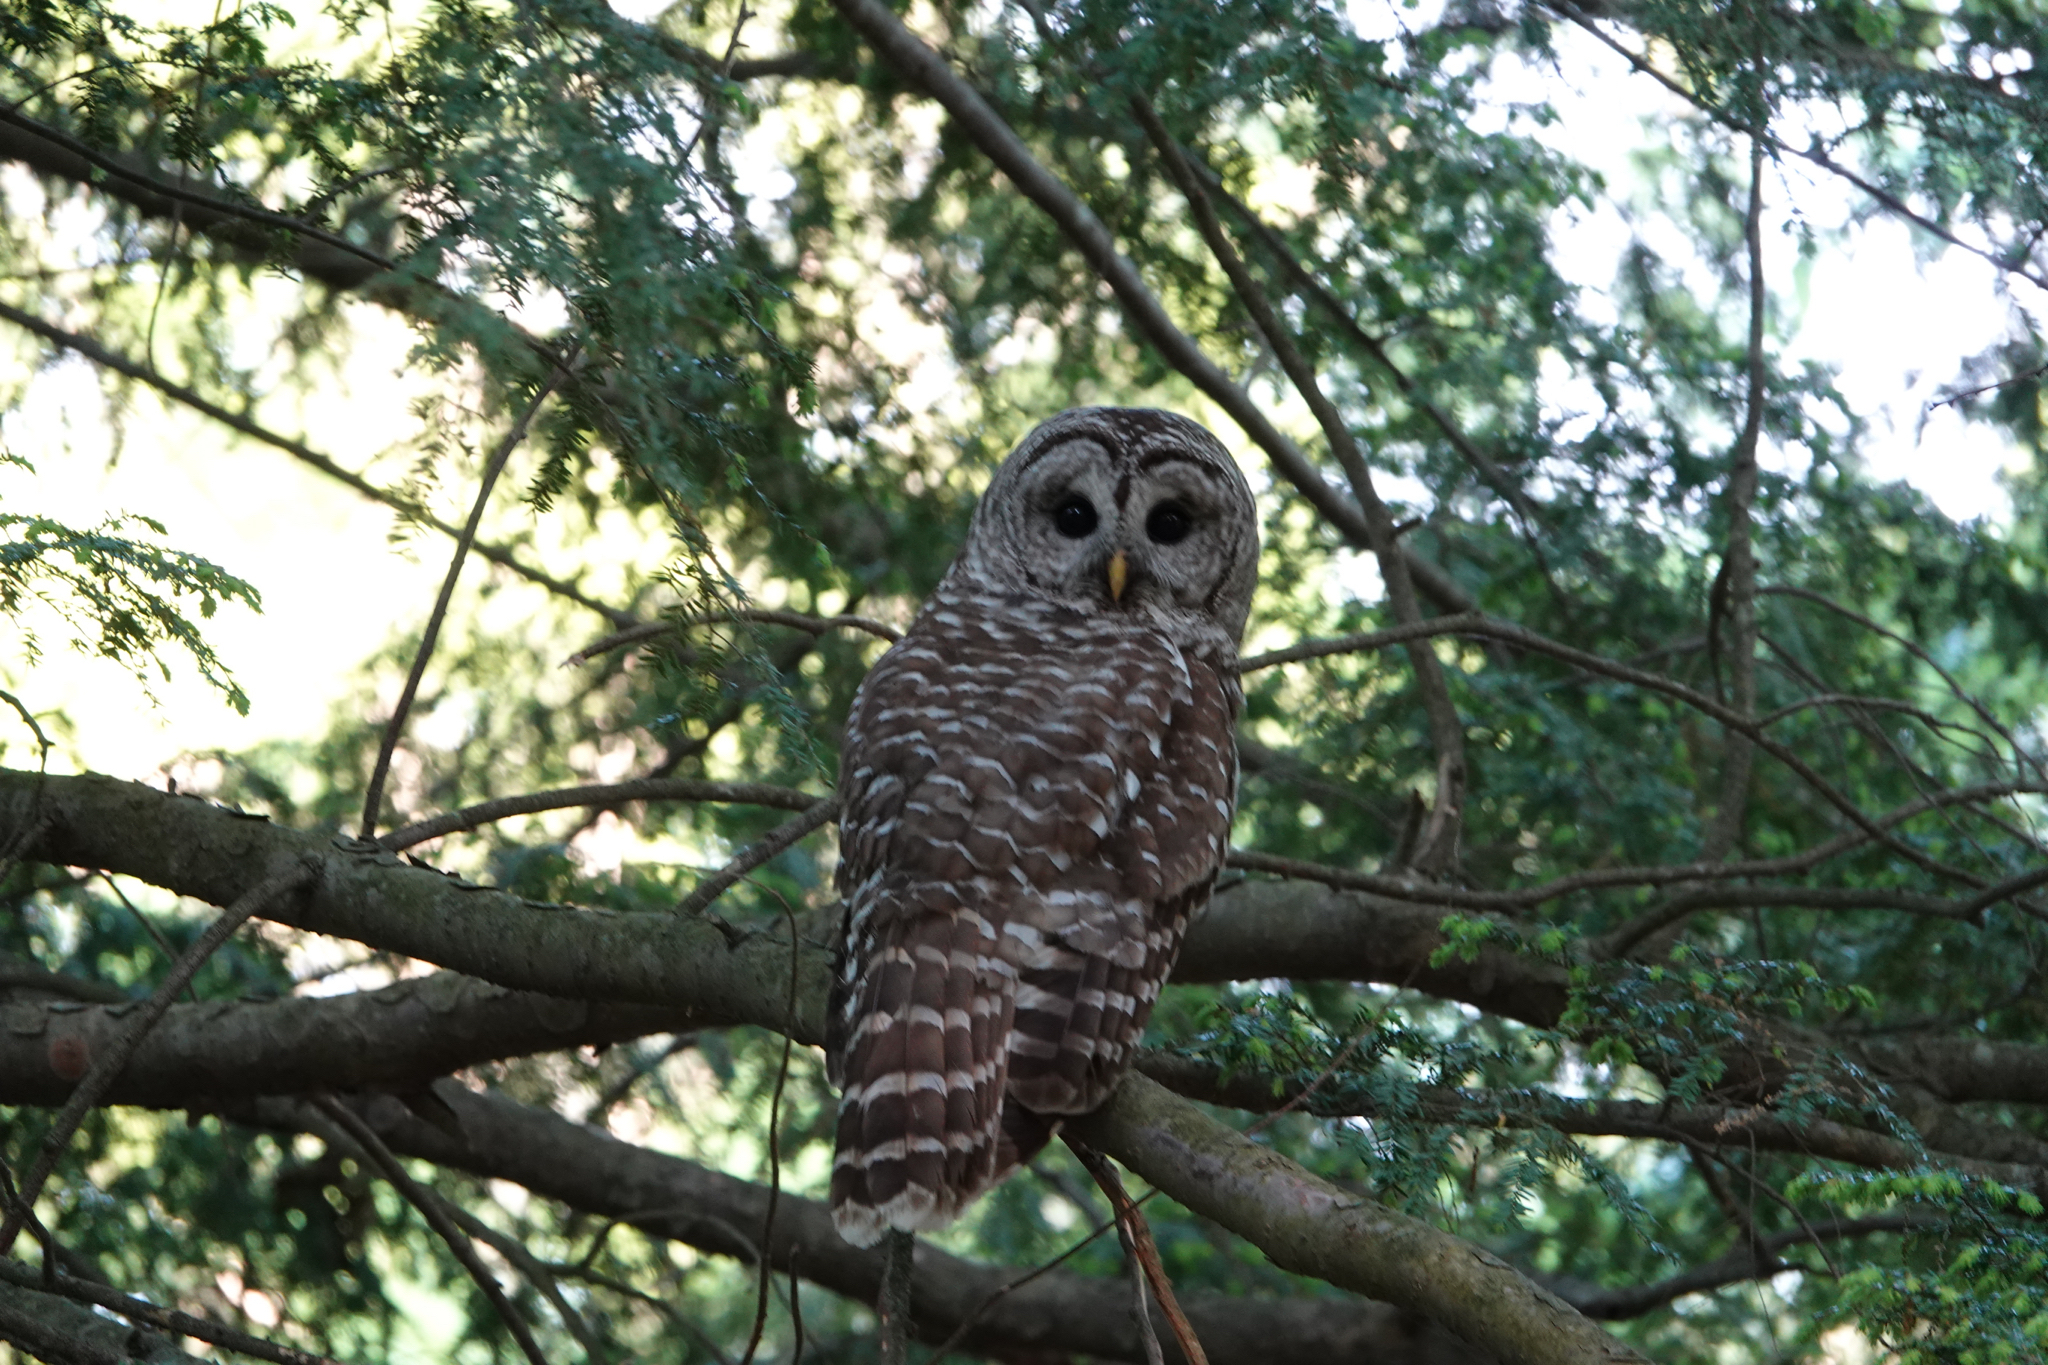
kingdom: Animalia
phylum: Chordata
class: Aves
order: Strigiformes
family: Strigidae
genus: Strix
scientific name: Strix varia
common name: Barred owl
